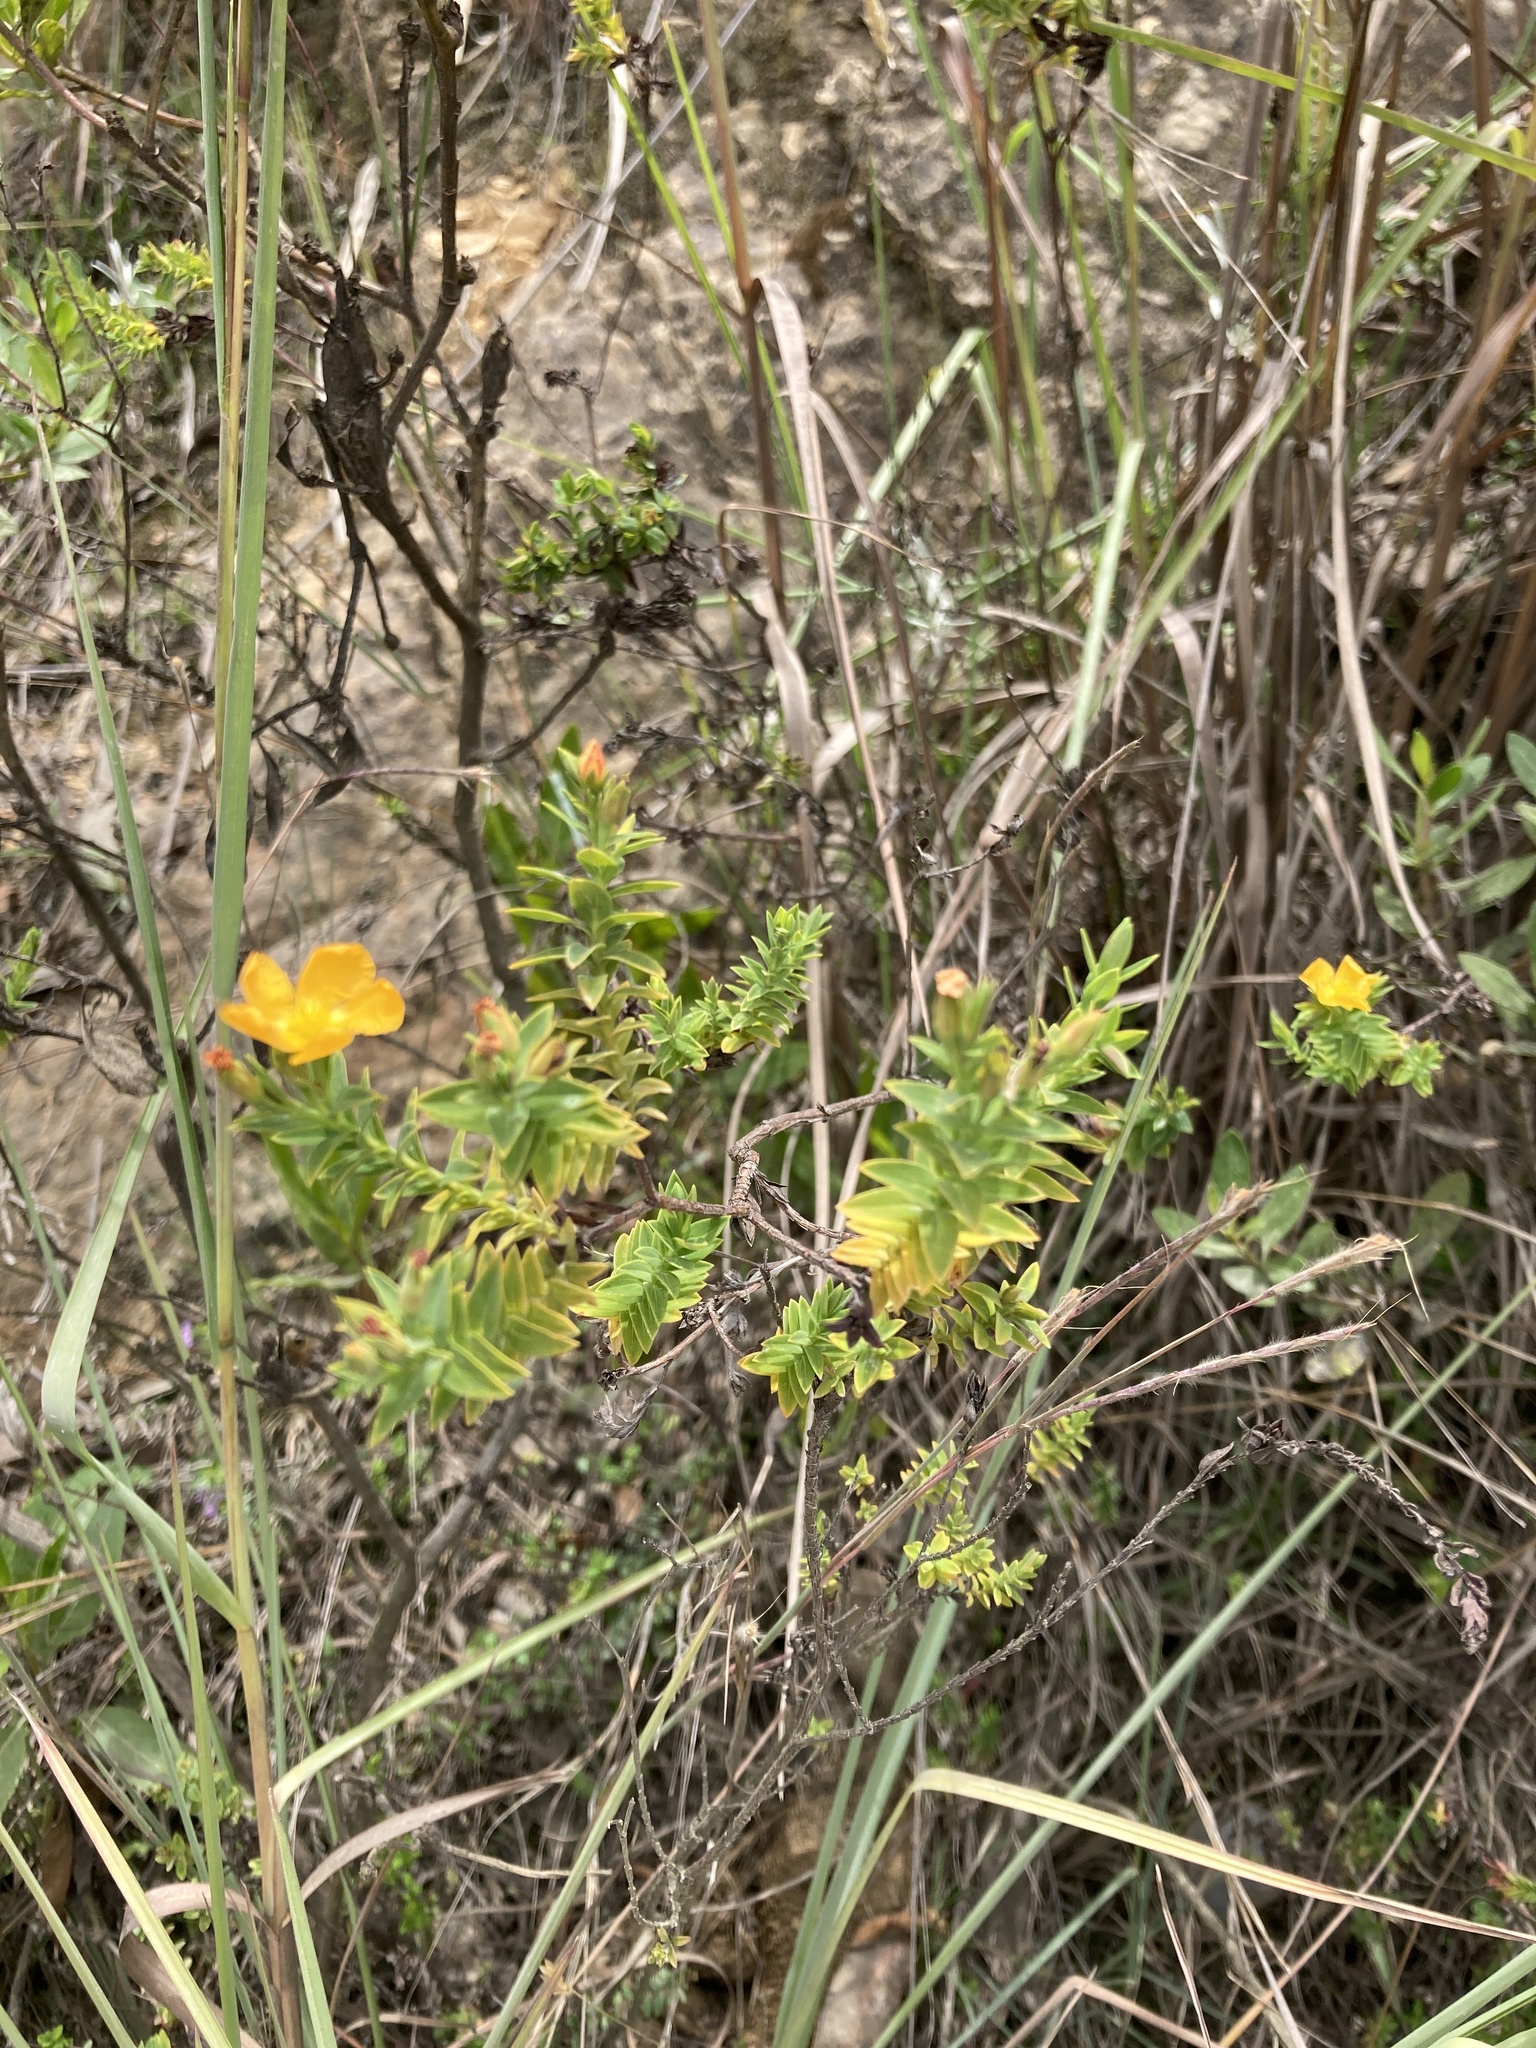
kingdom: Plantae
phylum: Tracheophyta
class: Magnoliopsida
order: Malpighiales
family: Hypericaceae
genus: Hypericum
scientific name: Hypericum ruscoides
